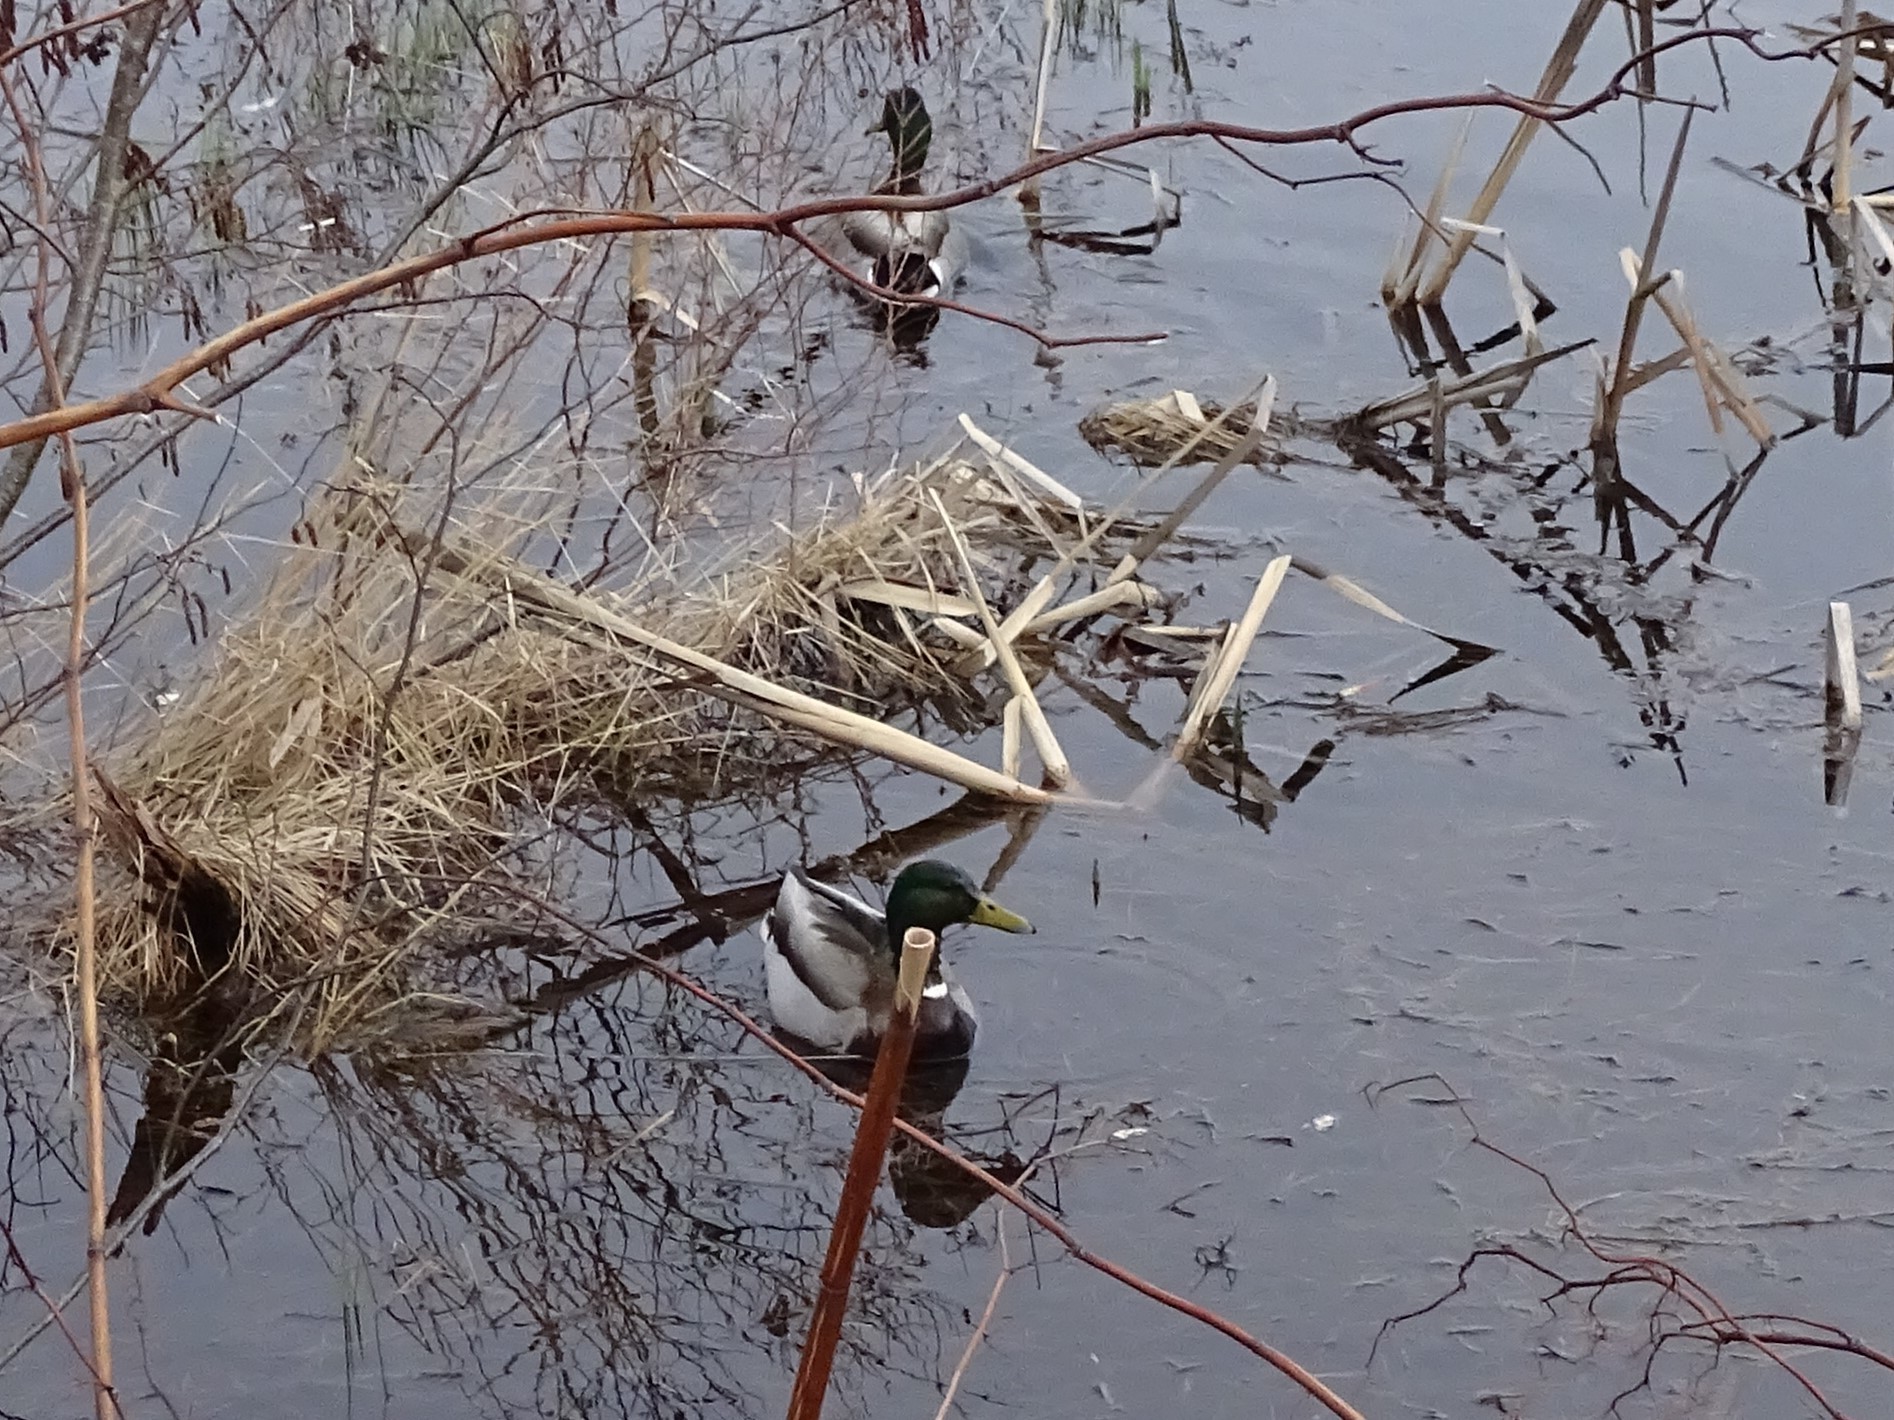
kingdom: Animalia
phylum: Chordata
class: Aves
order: Anseriformes
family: Anatidae
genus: Anas
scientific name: Anas platyrhynchos
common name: Mallard
